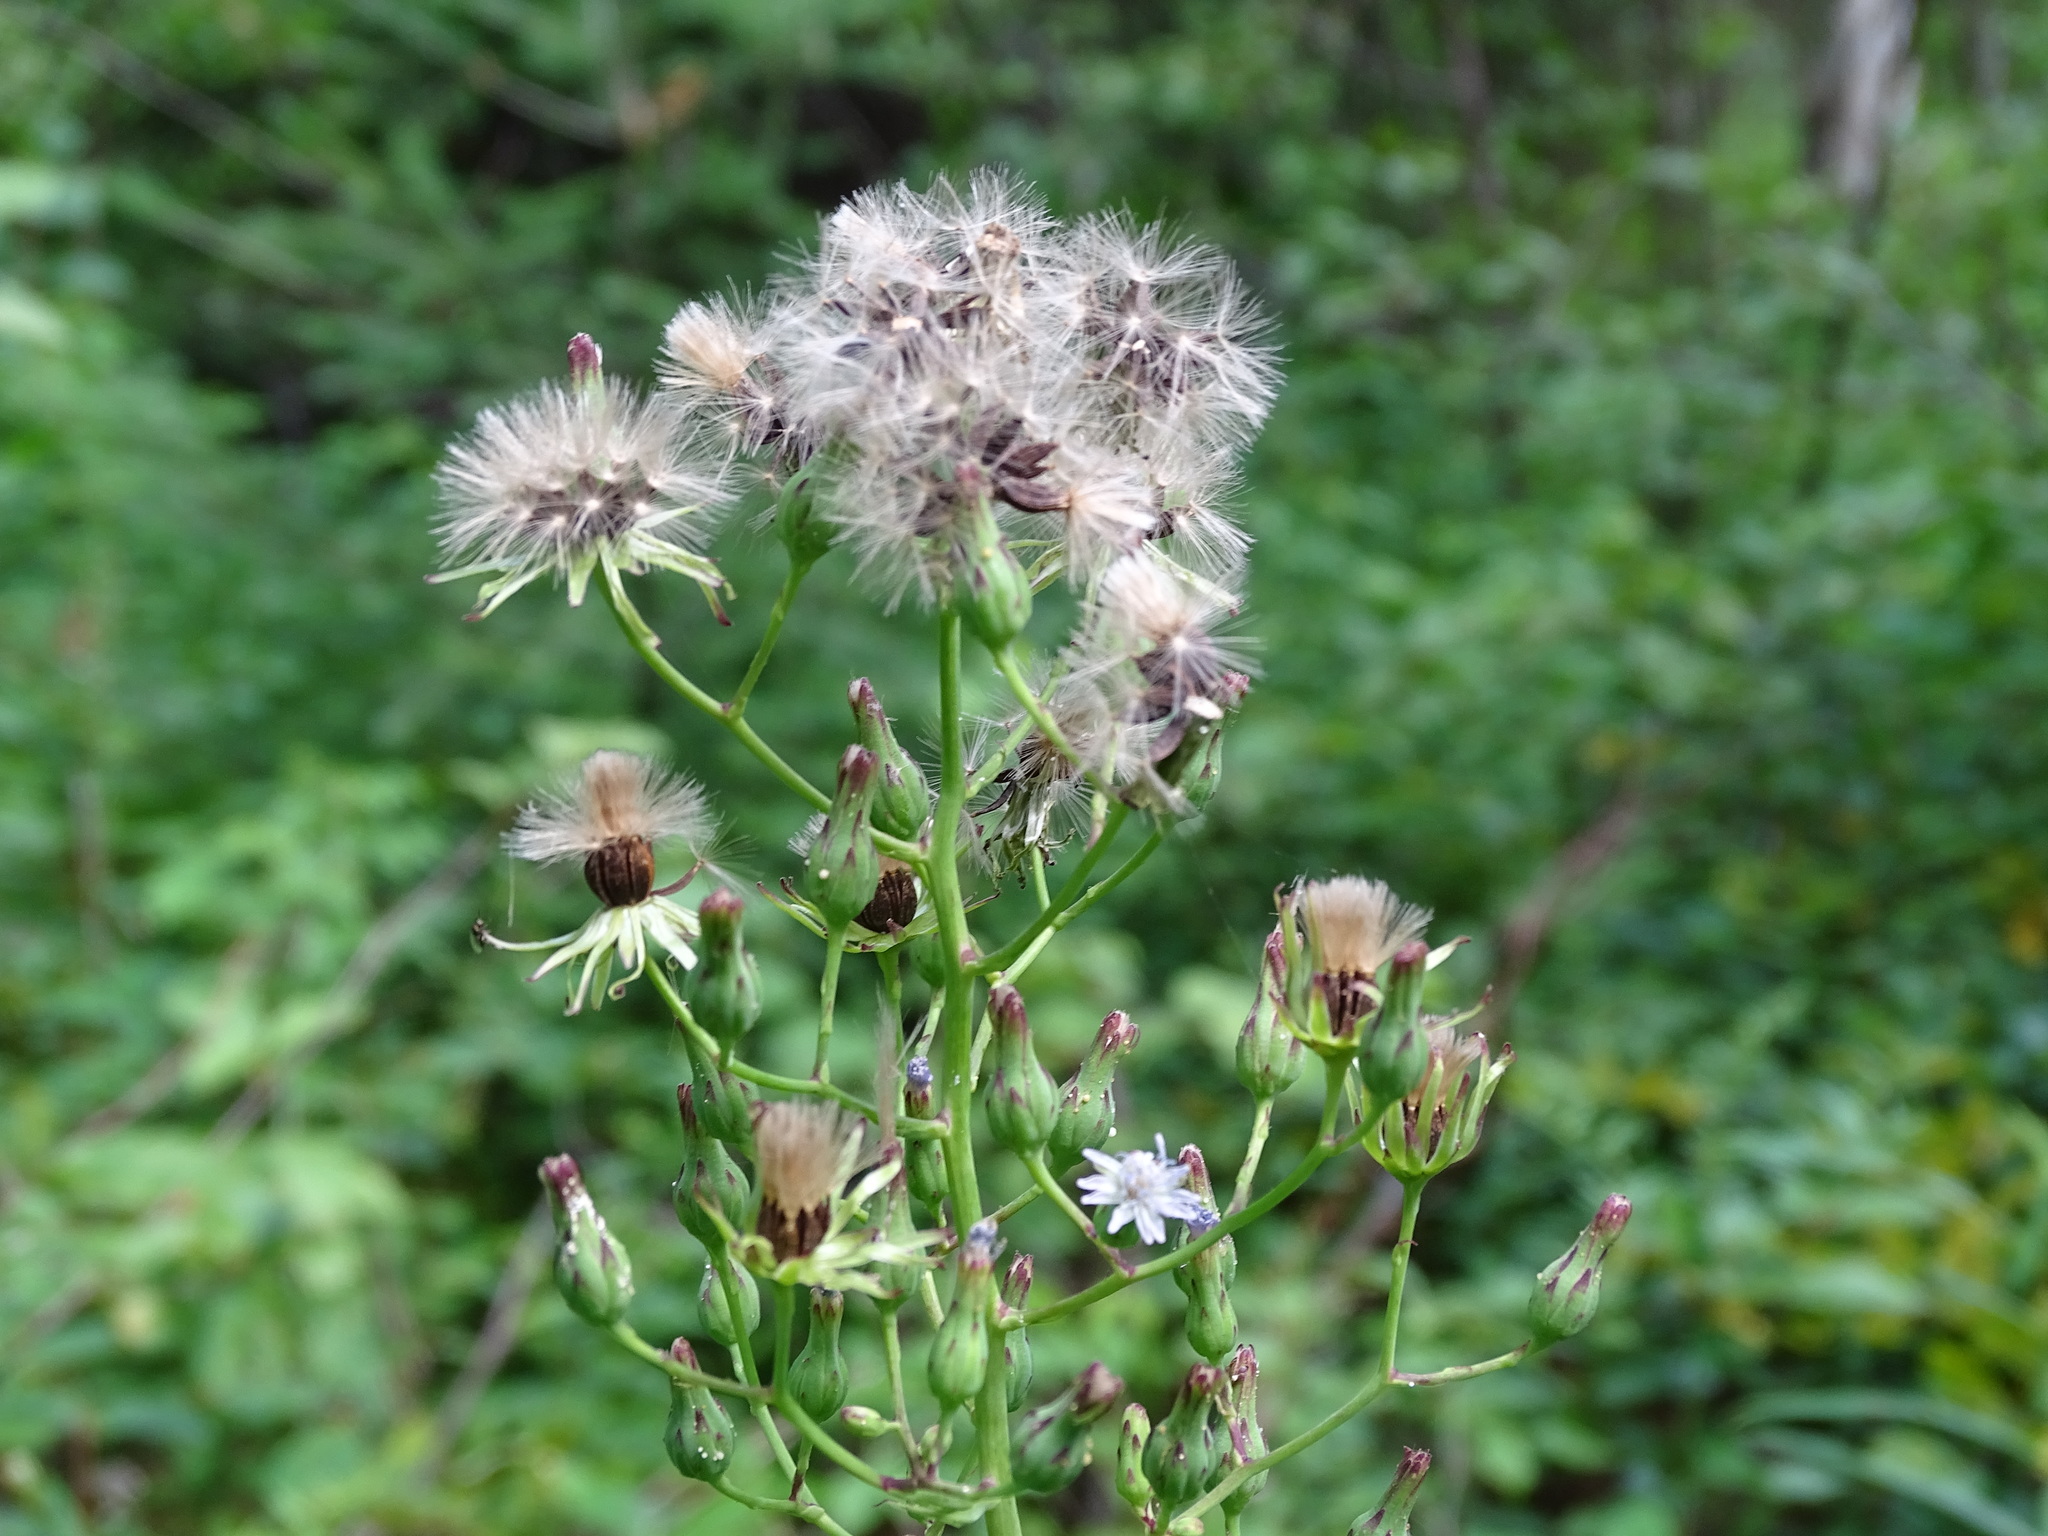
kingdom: Plantae
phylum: Tracheophyta
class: Magnoliopsida
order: Asterales
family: Asteraceae
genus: Lactuca
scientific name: Lactuca biennis
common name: Blue wood lettuce
